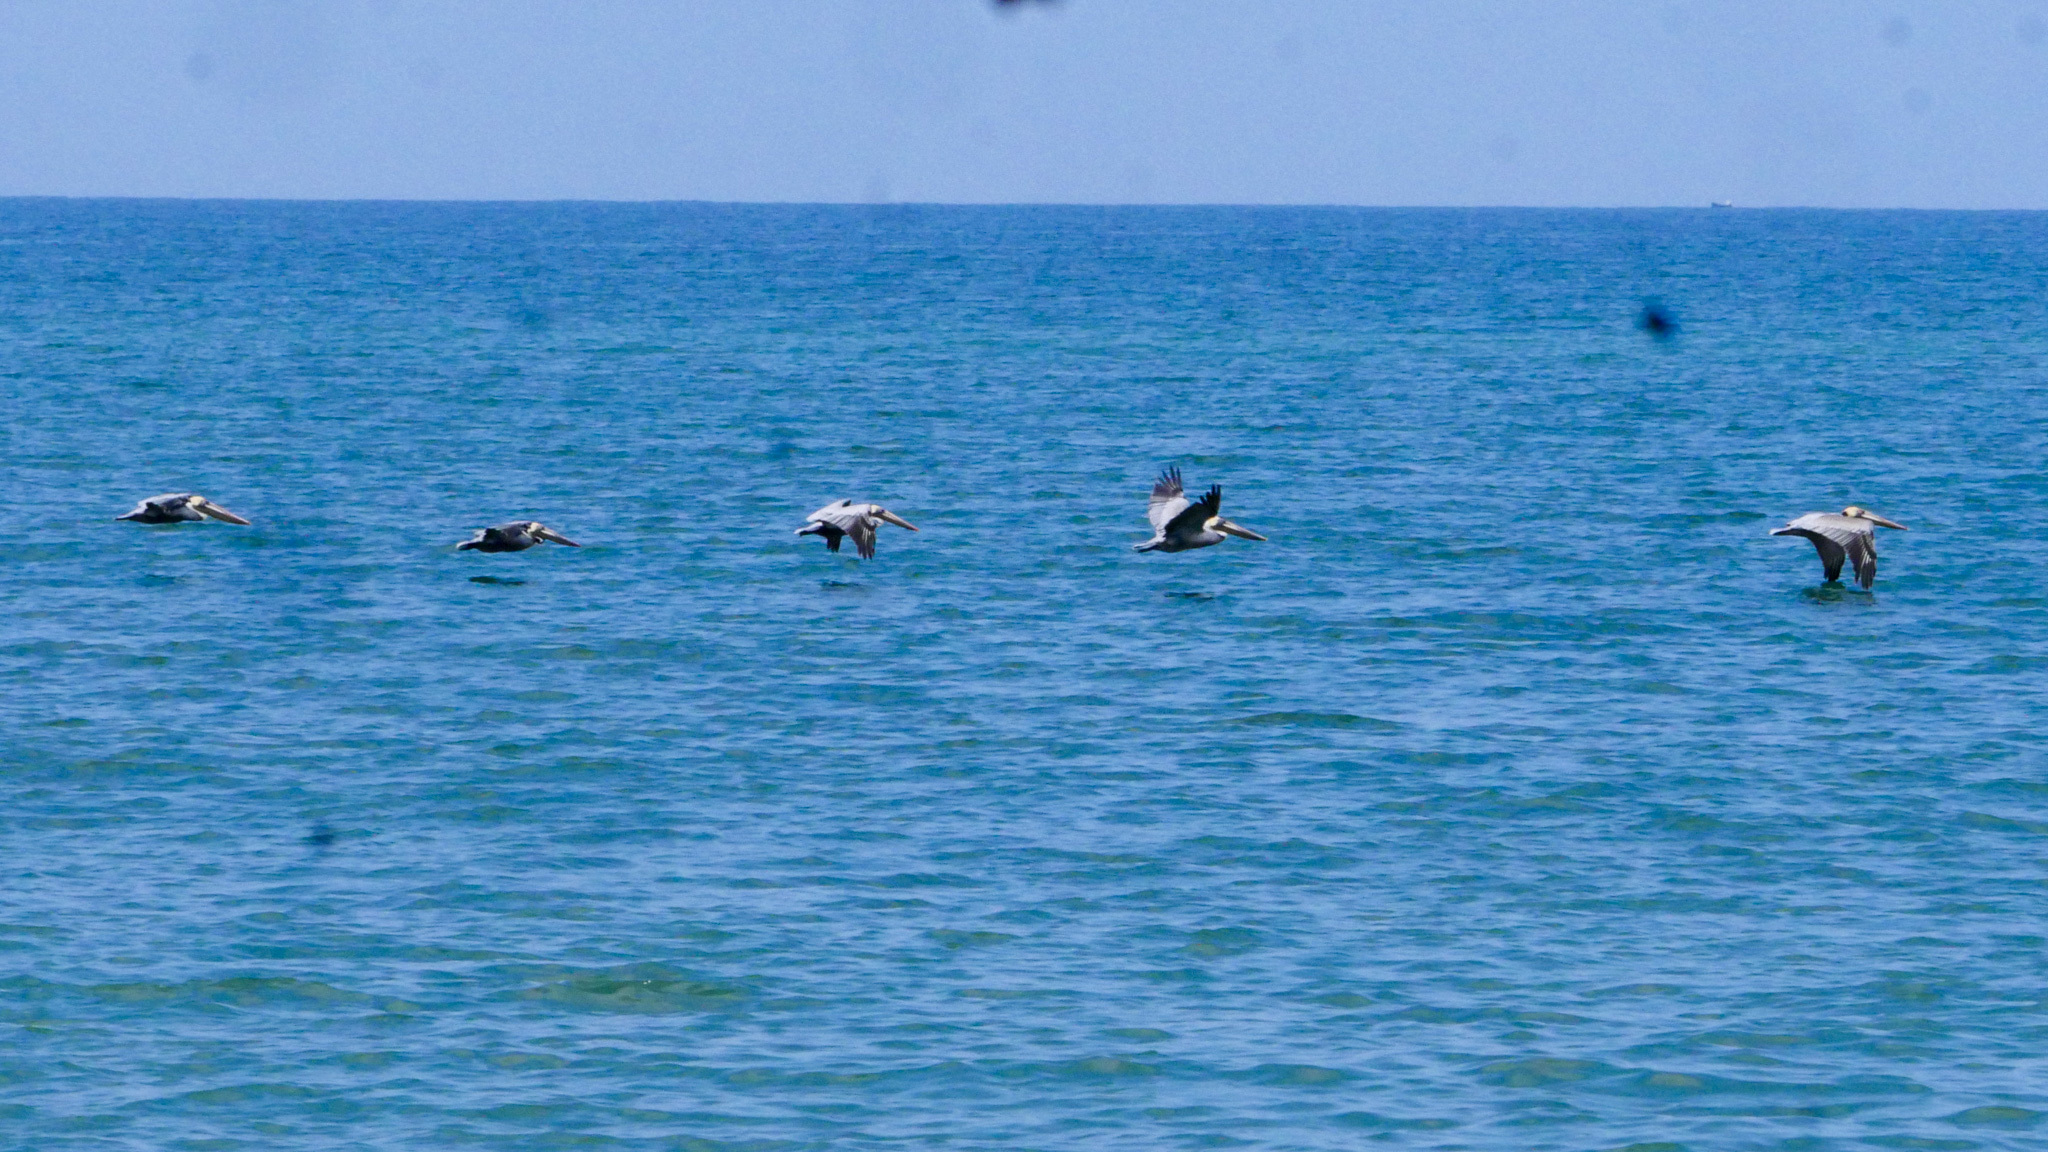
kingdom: Animalia
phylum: Chordata
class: Aves
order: Pelecaniformes
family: Pelecanidae
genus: Pelecanus
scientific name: Pelecanus occidentalis
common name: Brown pelican
